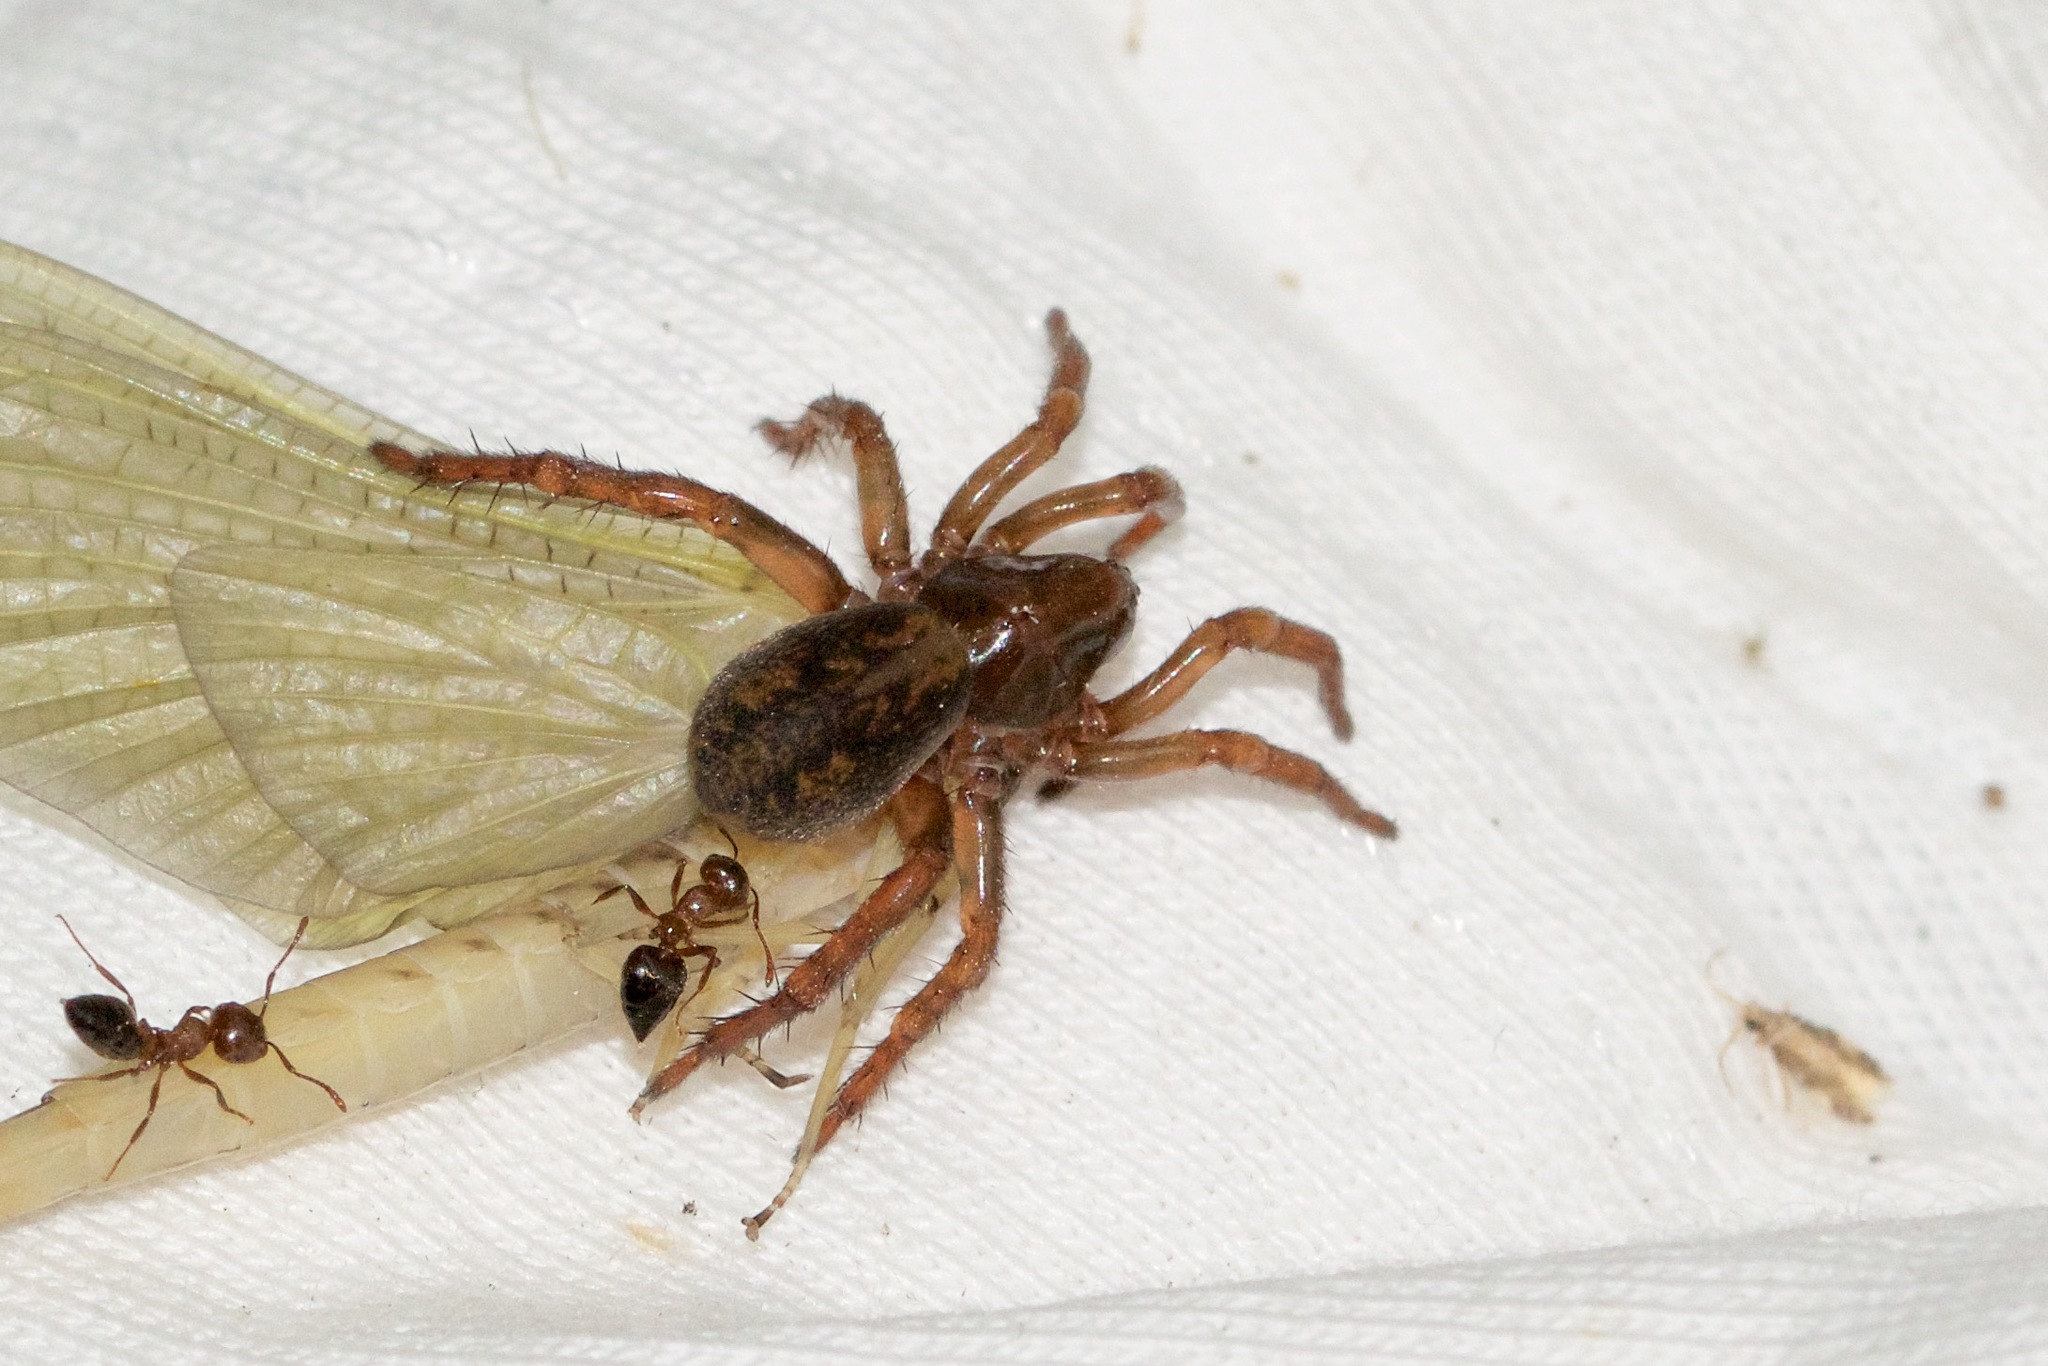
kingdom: Animalia
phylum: Arthropoda
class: Arachnida
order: Araneae
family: Lycosidae
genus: Arctosa
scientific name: Arctosa rubicunda
